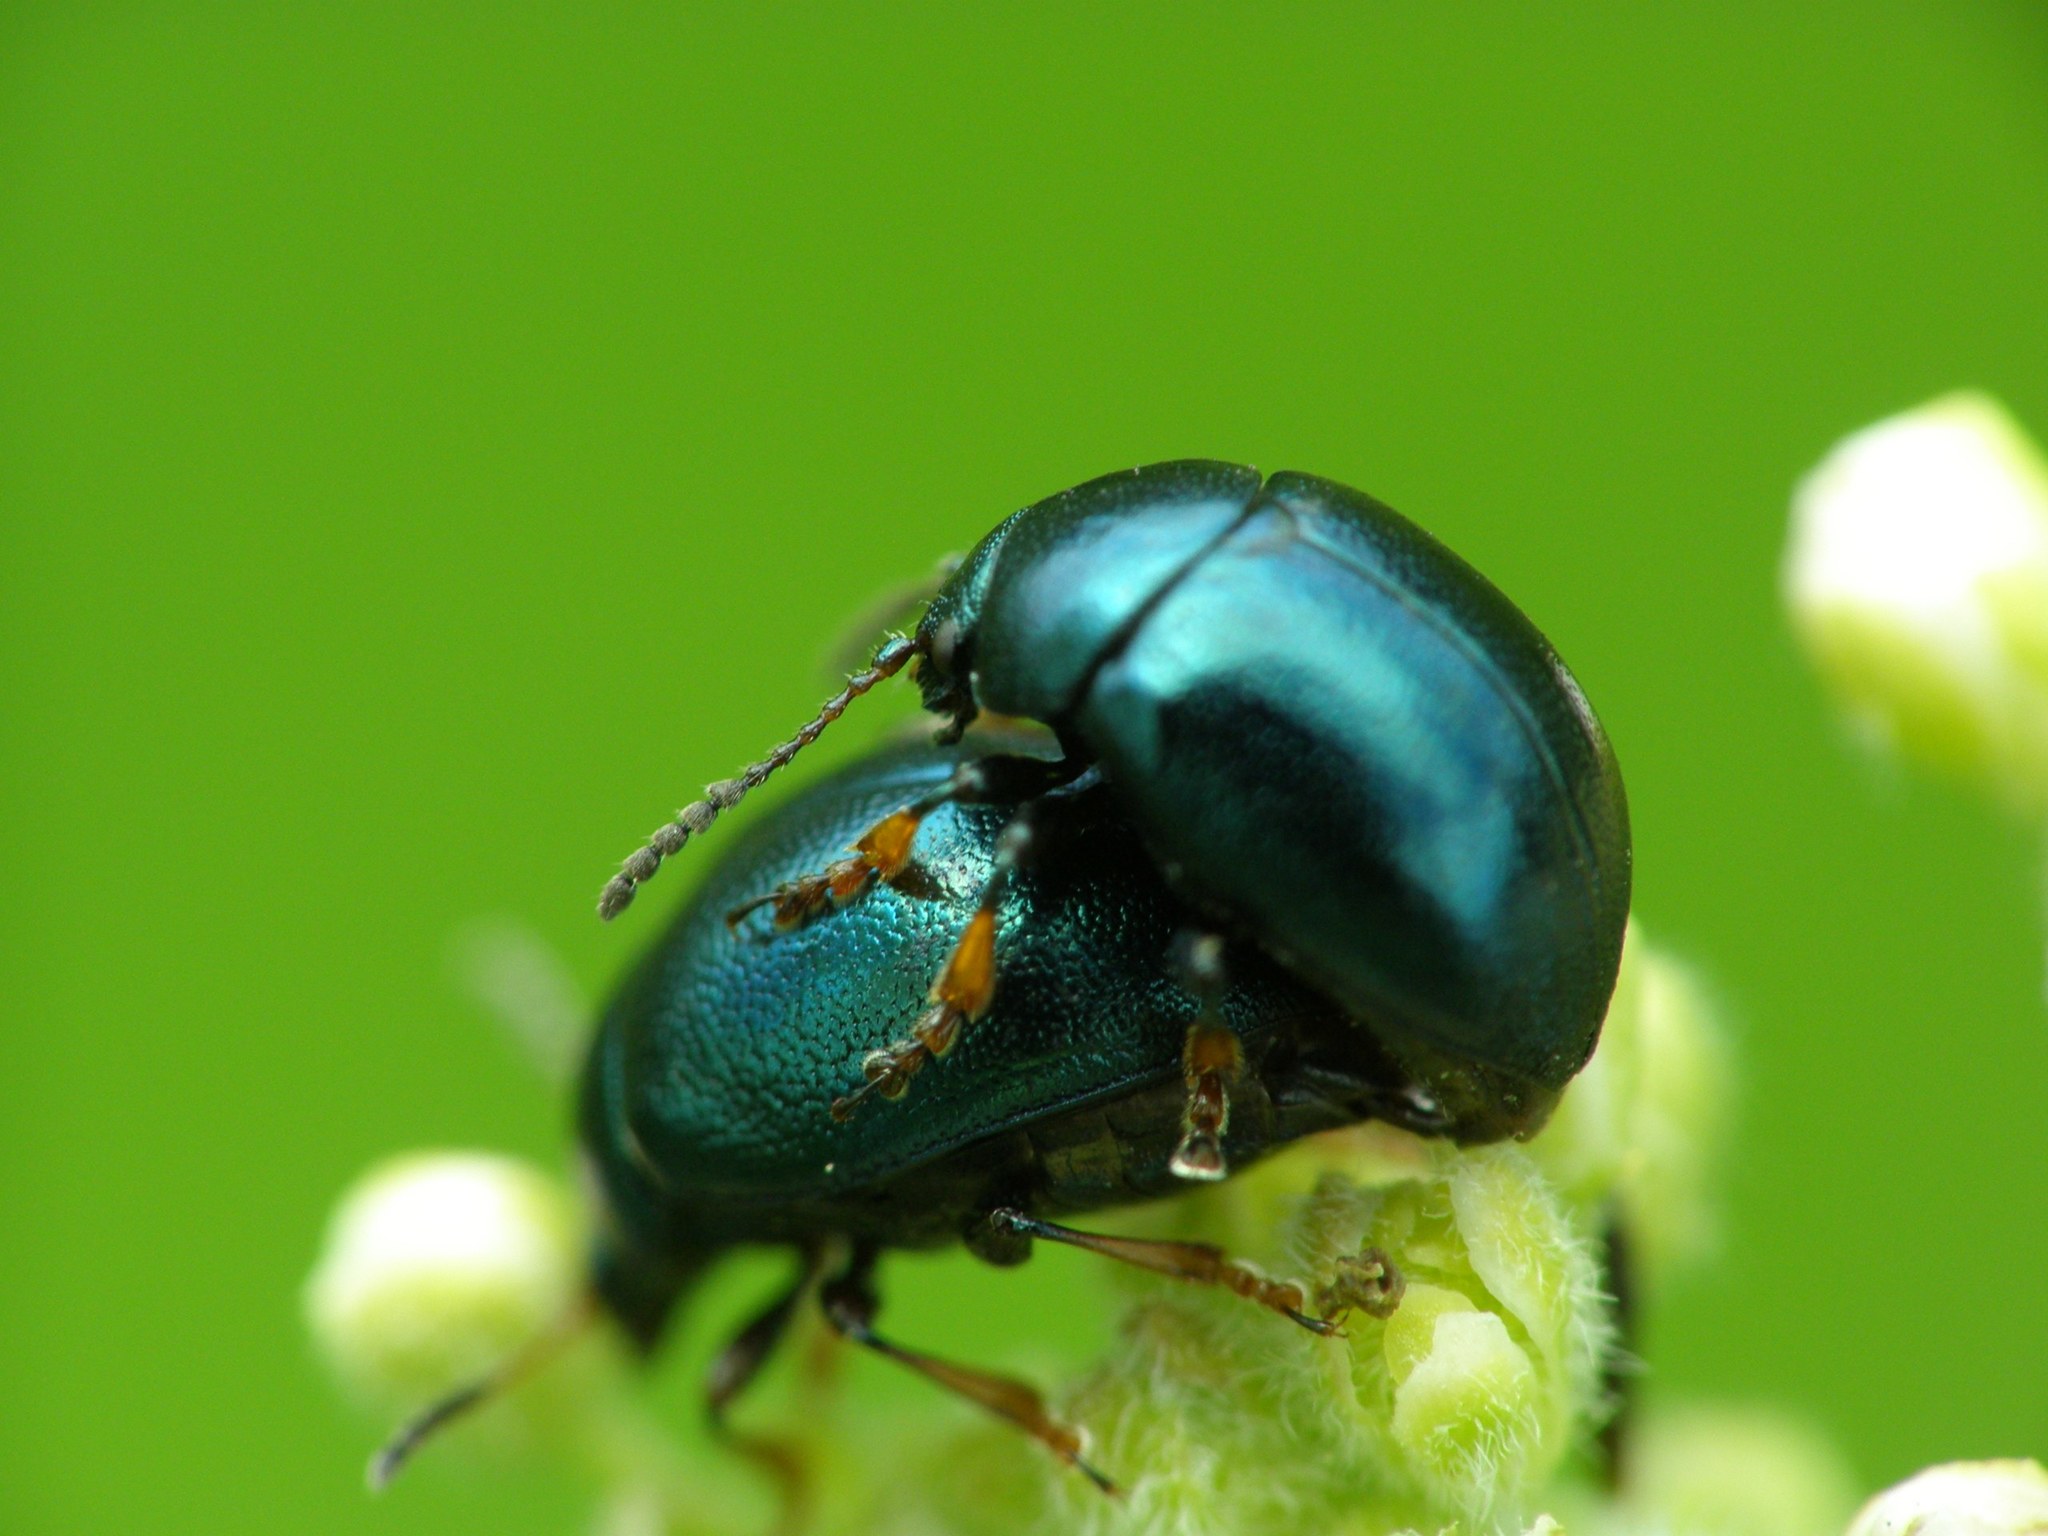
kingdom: Animalia
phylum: Arthropoda
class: Insecta
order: Coleoptera
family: Chrysomelidae
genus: Colaphellus
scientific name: Colaphellus sophiae
